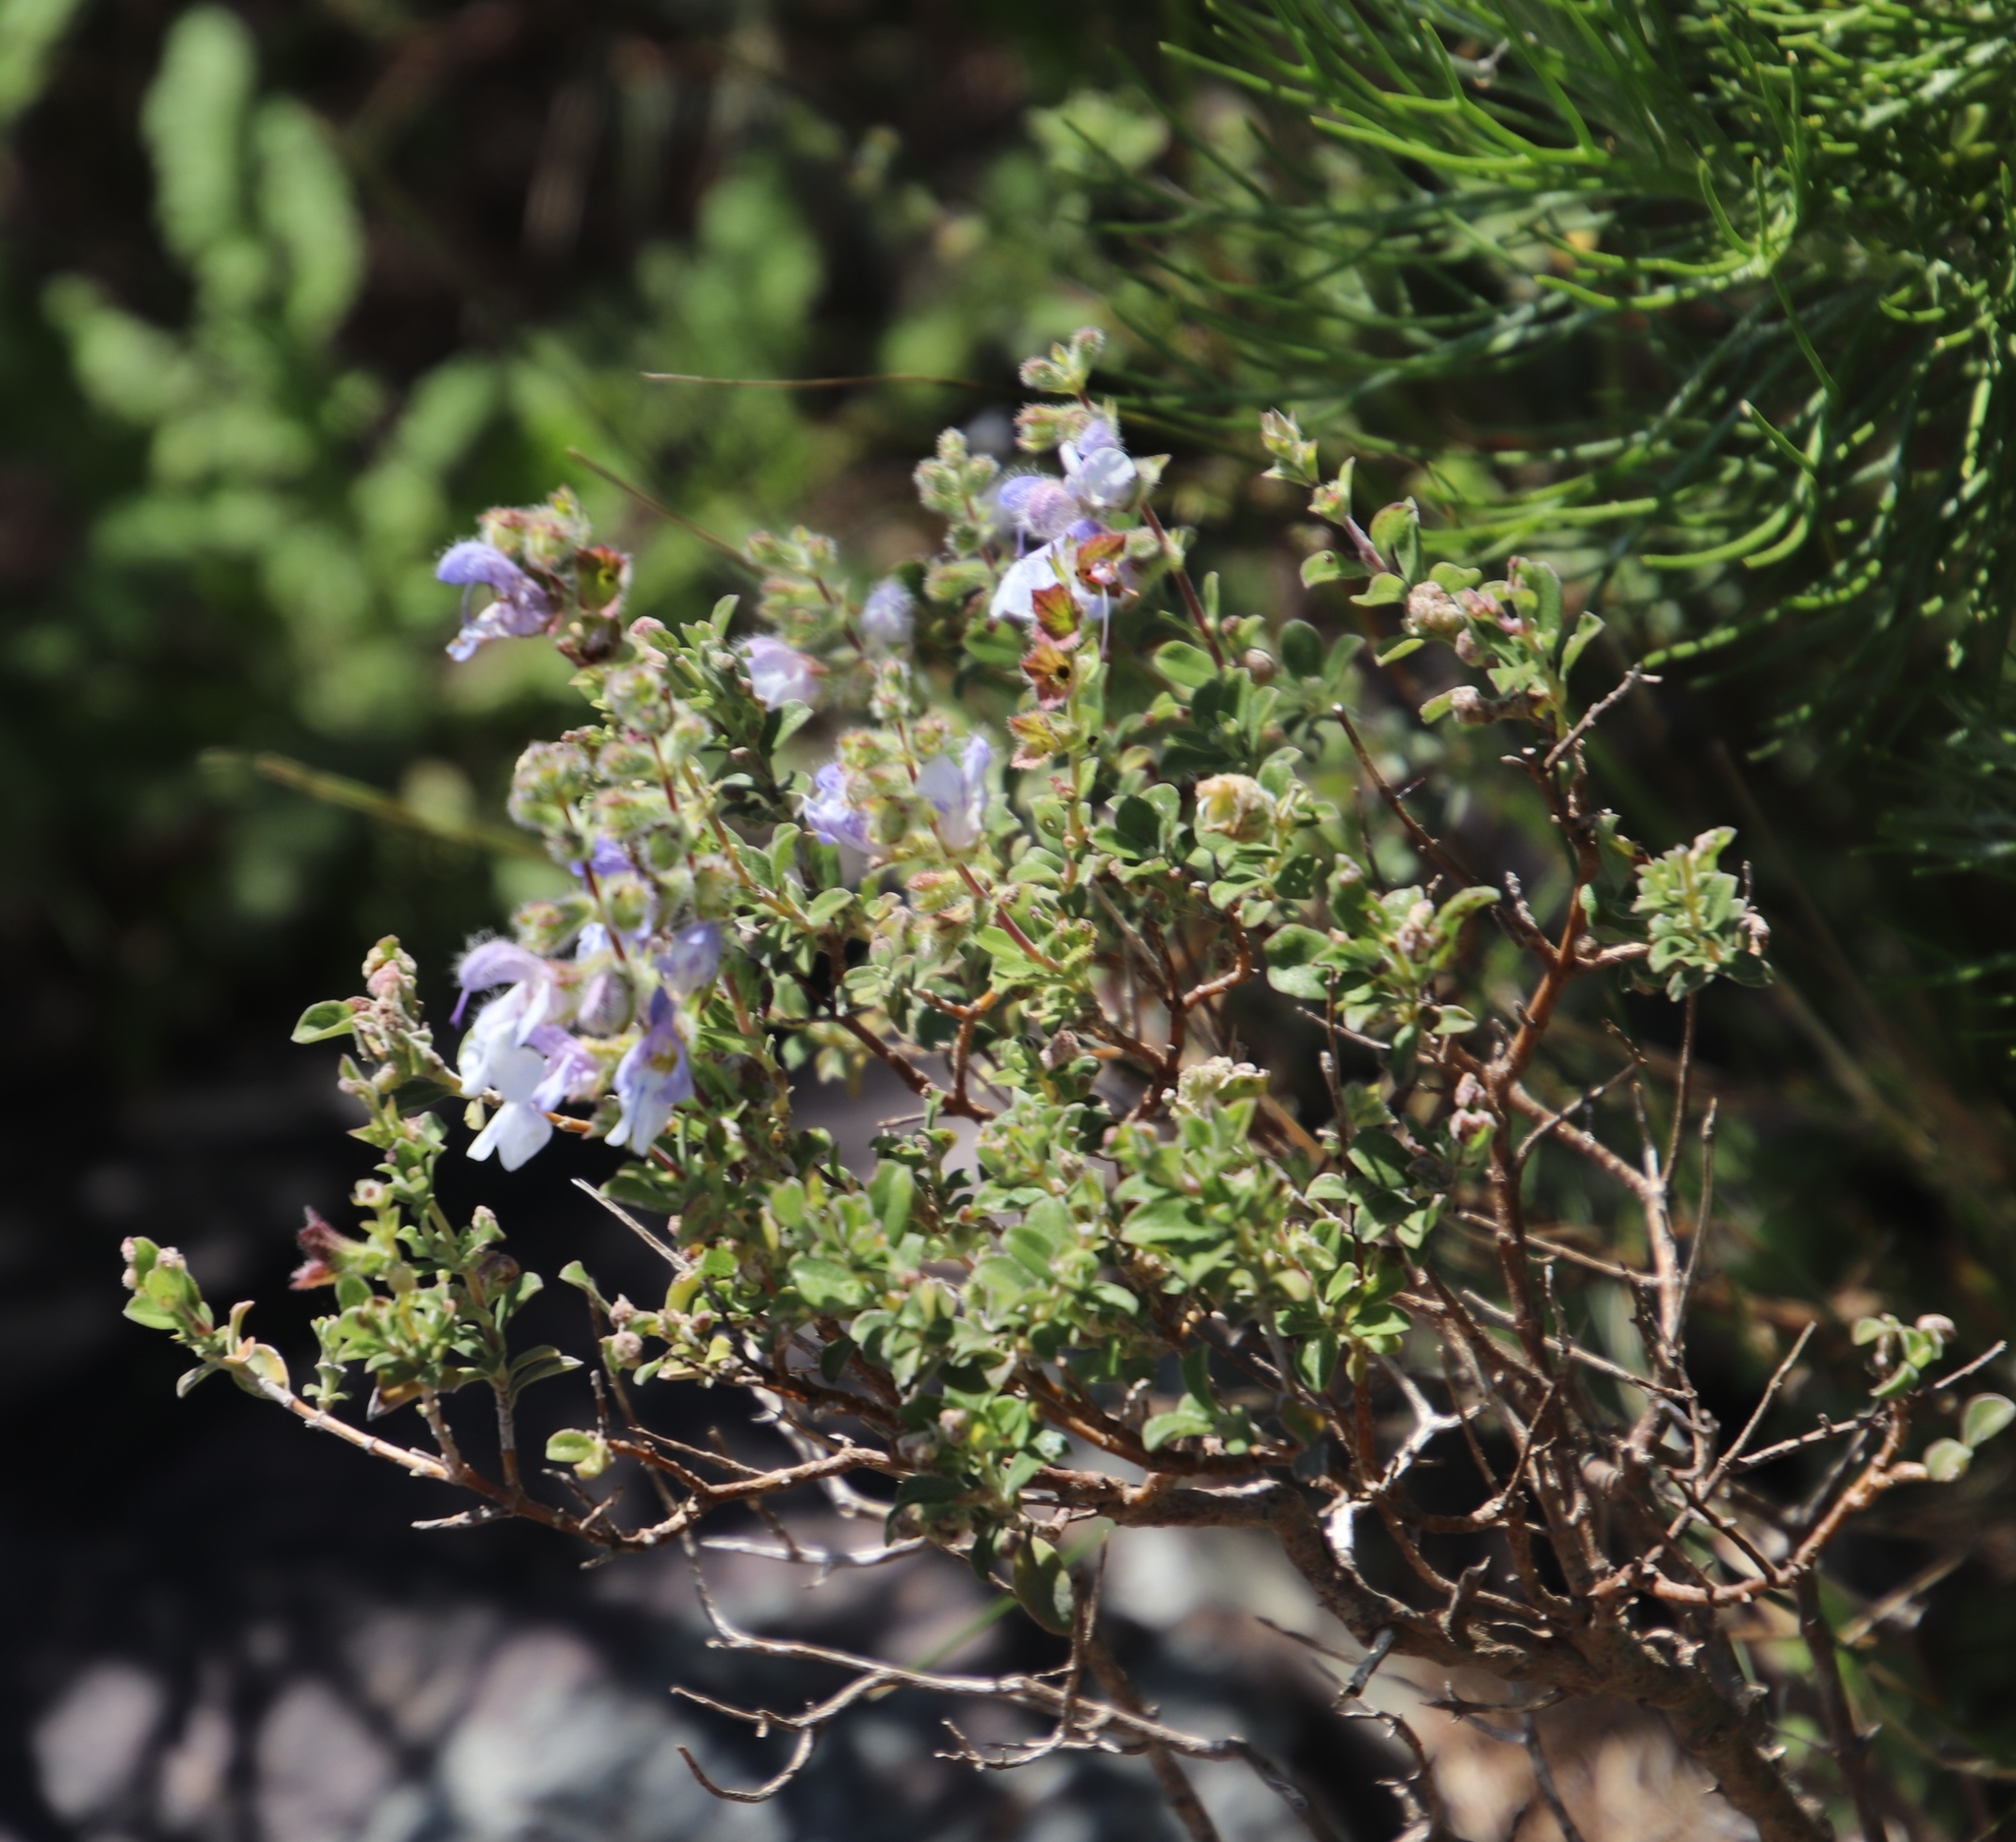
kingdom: Plantae
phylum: Tracheophyta
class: Magnoliopsida
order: Lamiales
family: Lamiaceae
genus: Salvia
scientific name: Salvia chamelaeagnea
